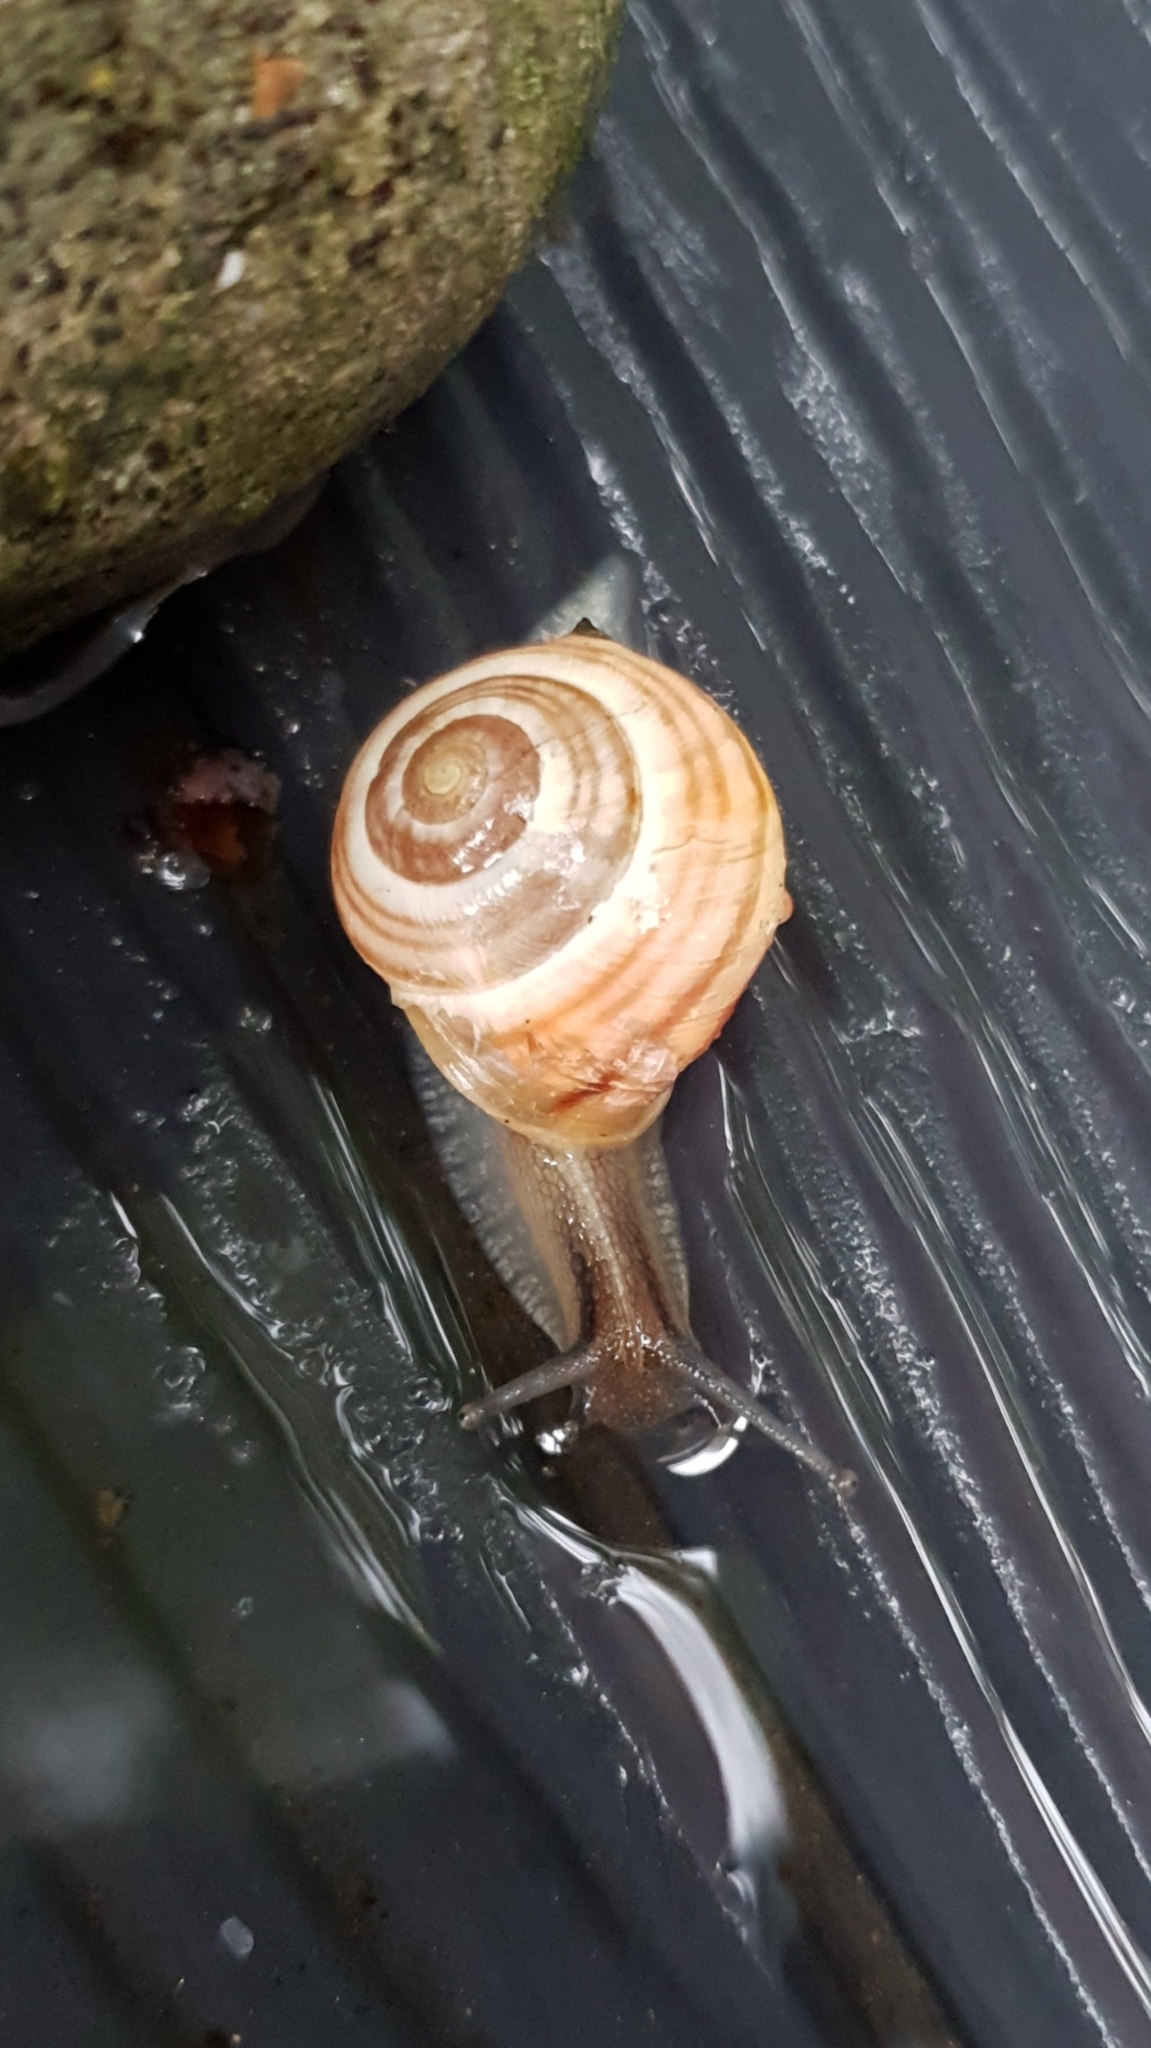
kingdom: Animalia
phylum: Mollusca
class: Gastropoda
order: Stylommatophora
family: Helicidae
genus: Cepaea
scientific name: Cepaea hortensis
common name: White-lip gardensnail
